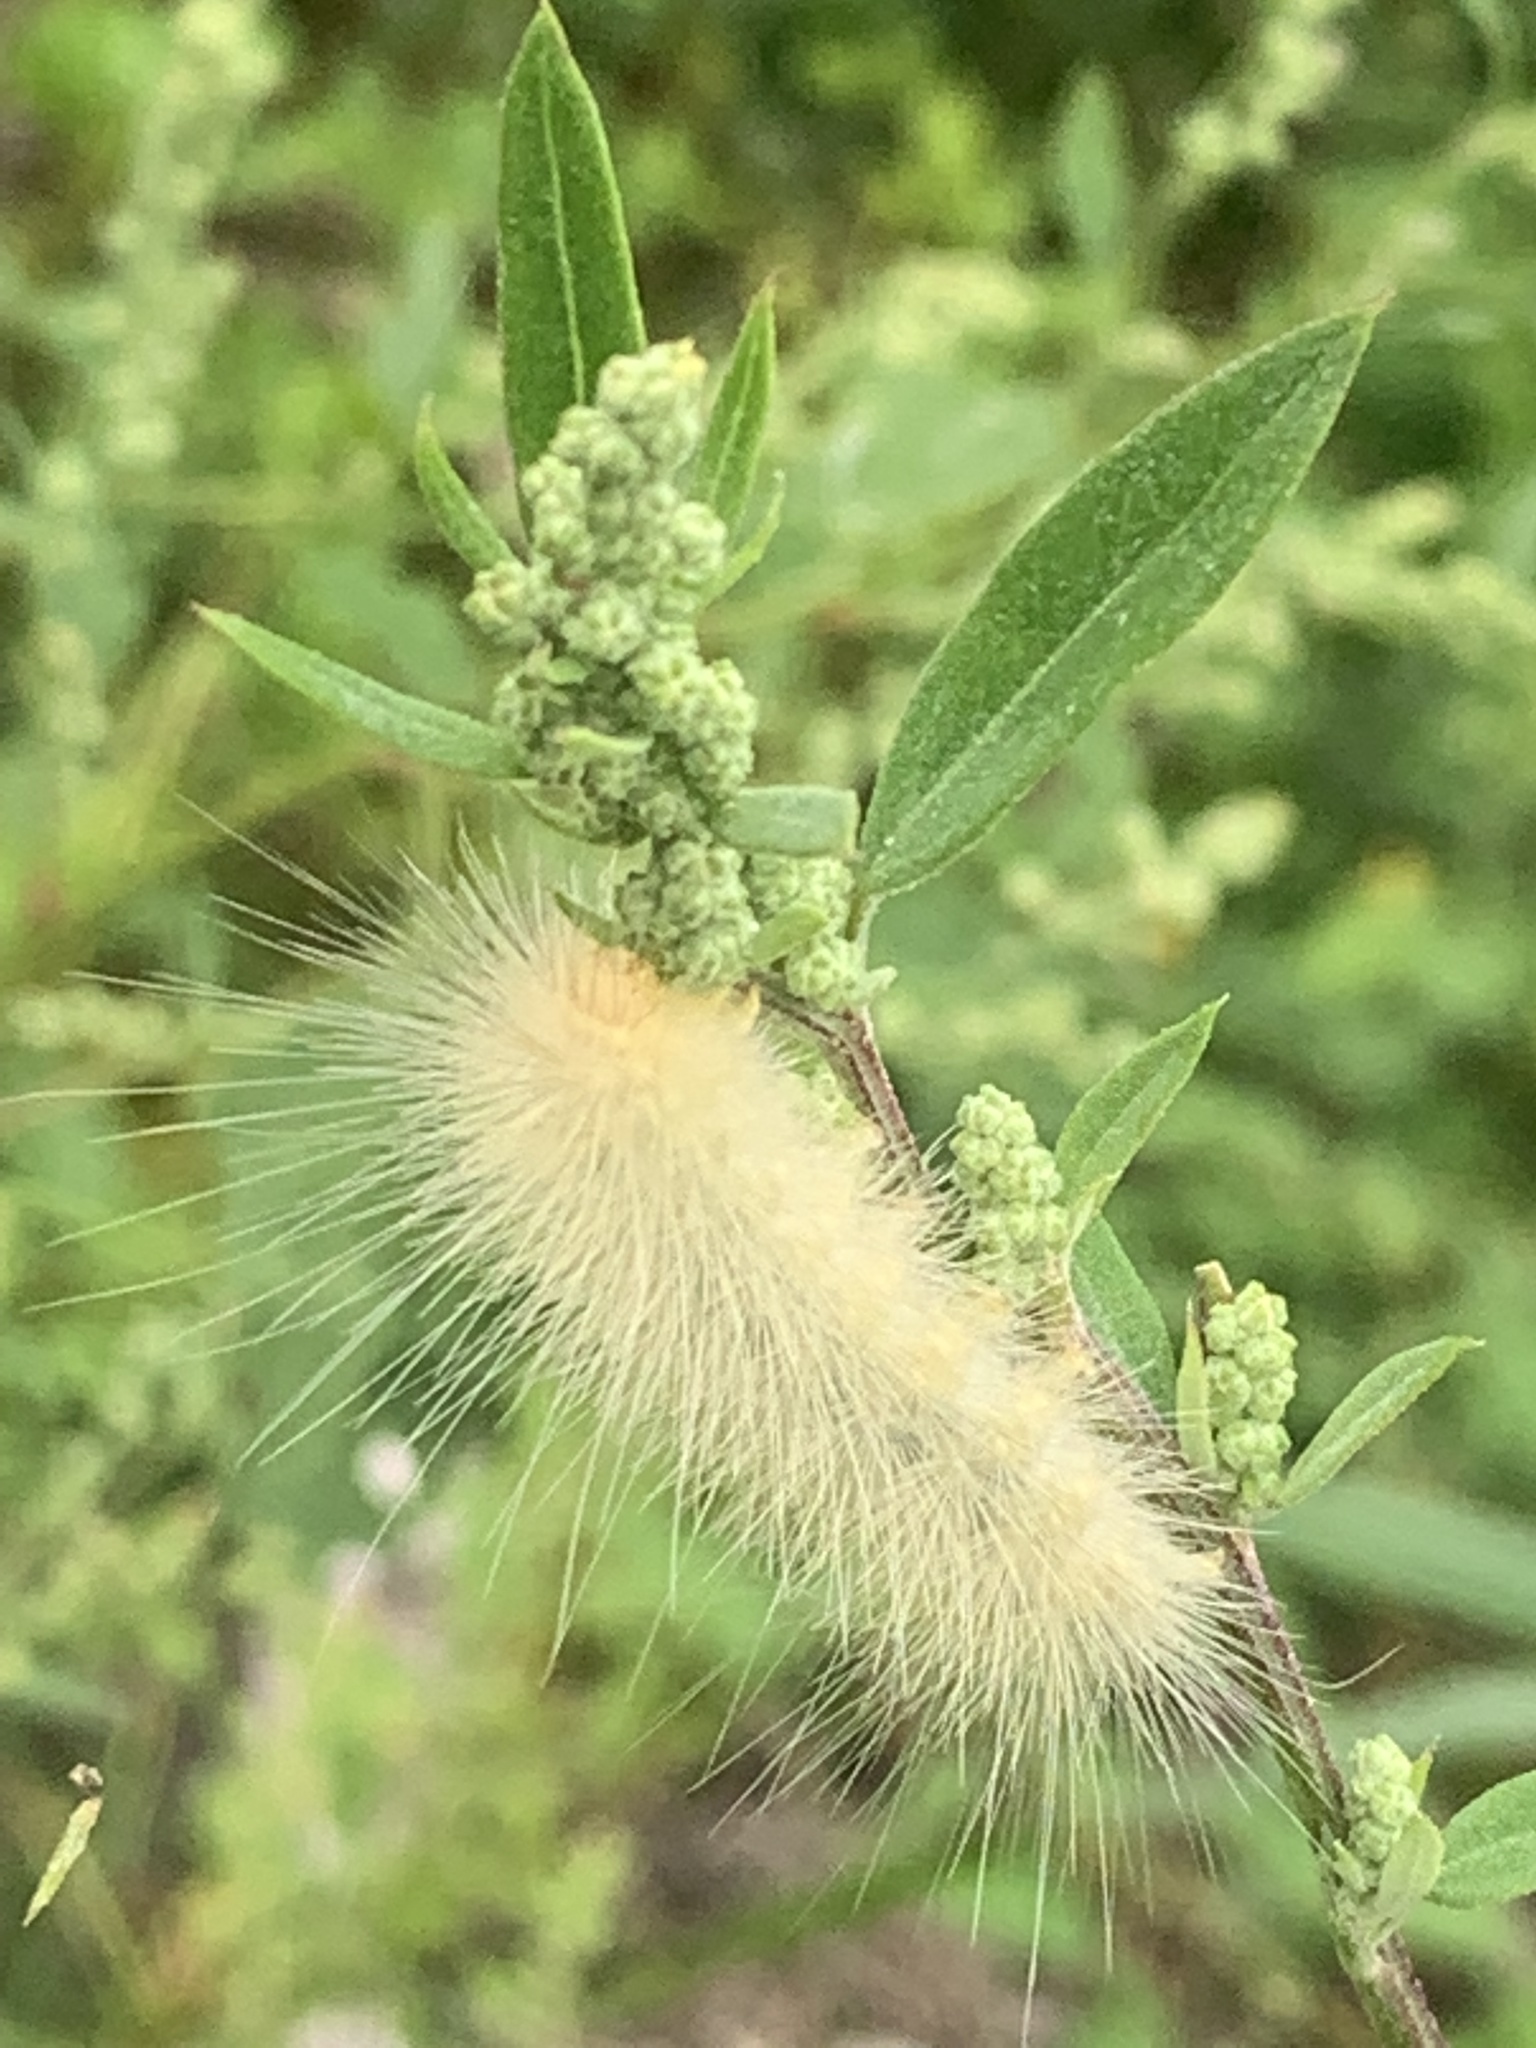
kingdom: Animalia
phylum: Arthropoda
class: Insecta
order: Lepidoptera
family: Erebidae
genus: Spilosoma
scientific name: Spilosoma virginica
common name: Virginia tiger moth
